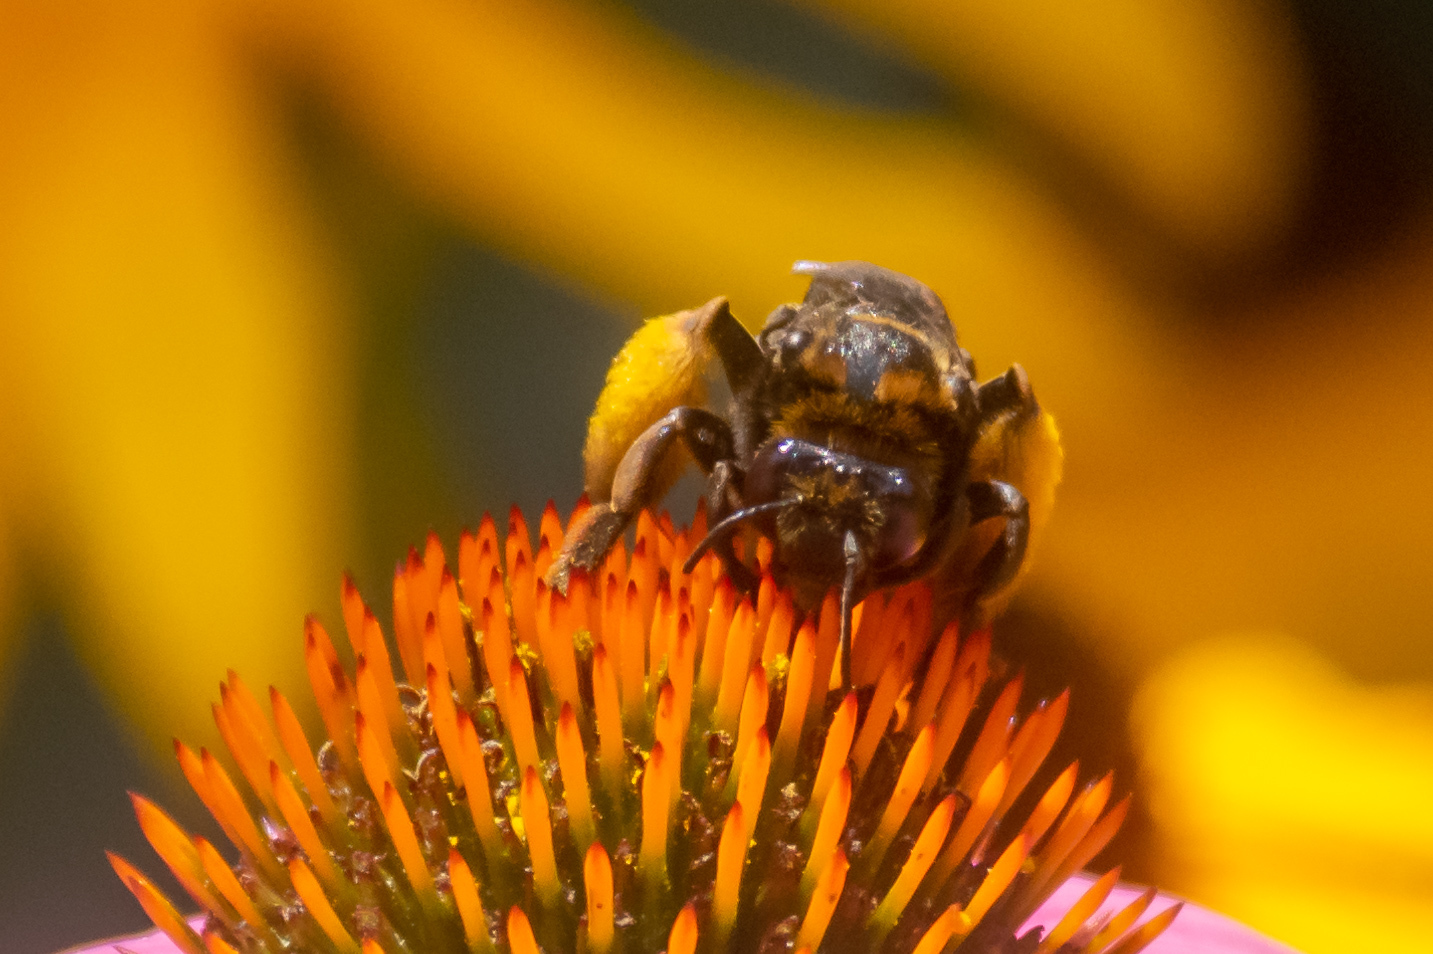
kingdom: Animalia
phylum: Arthropoda
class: Insecta
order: Hymenoptera
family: Apidae
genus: Svastra
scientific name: Svastra obliqua
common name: Oblique longhorn
